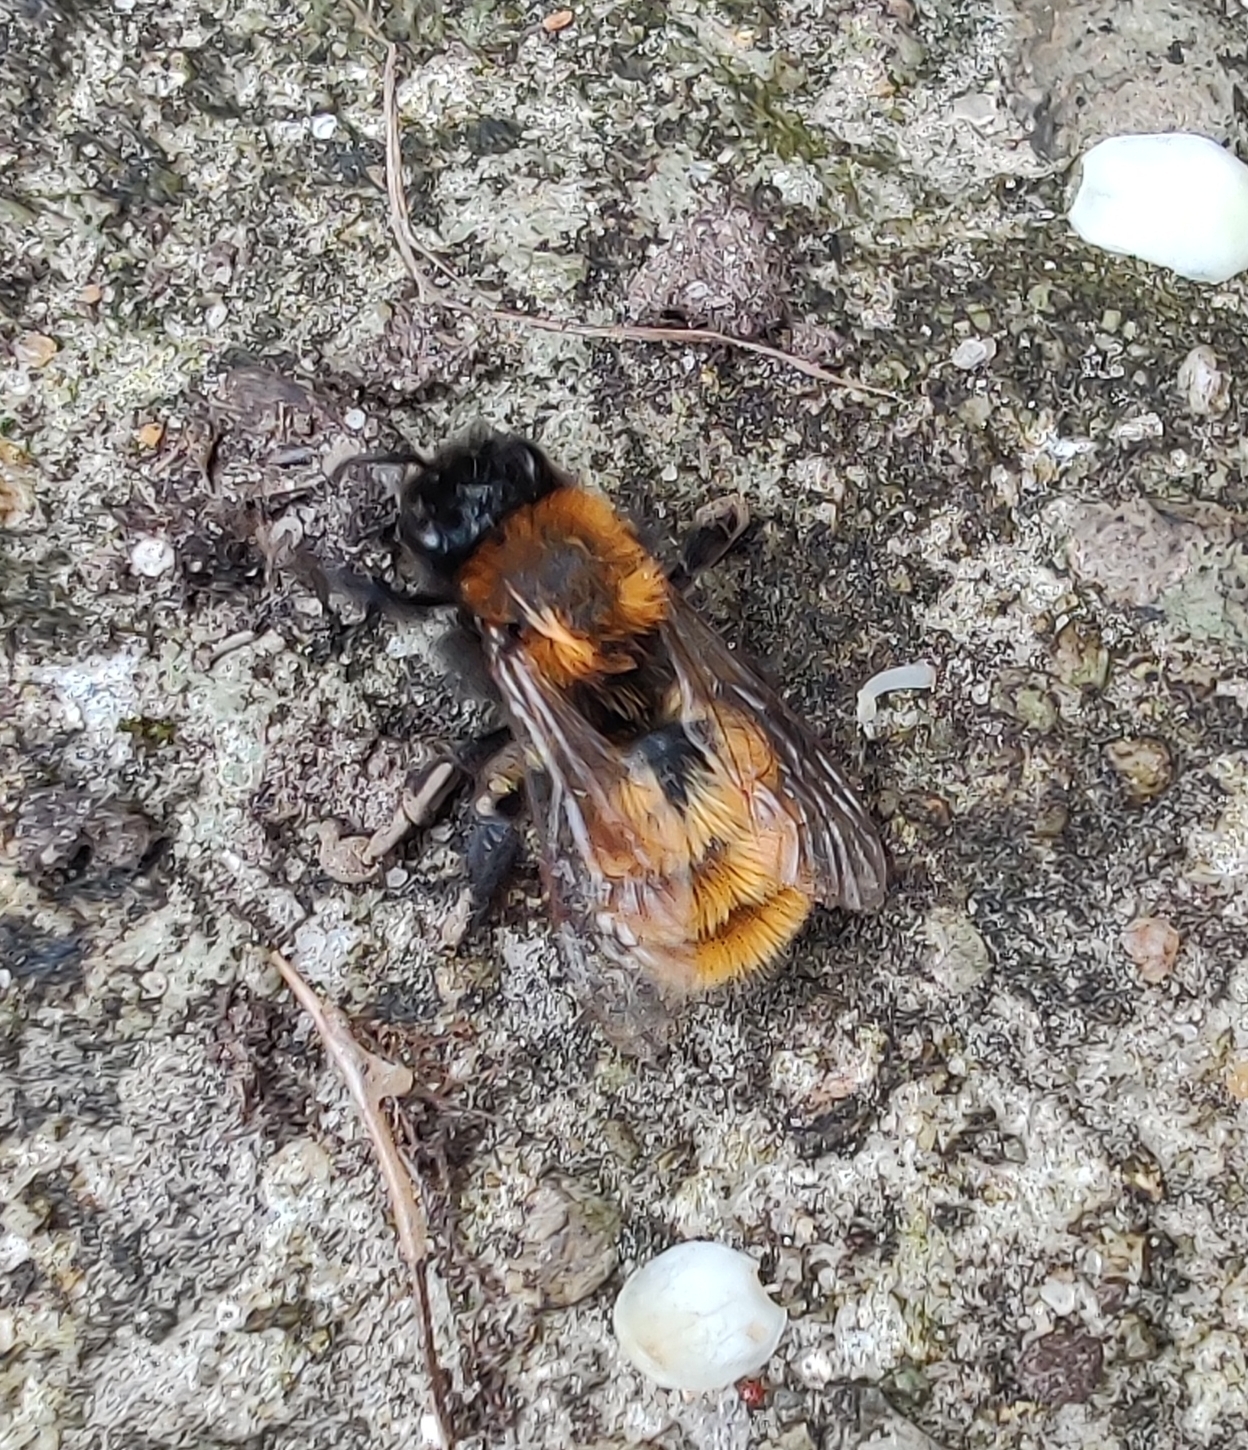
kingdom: Animalia
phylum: Arthropoda
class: Insecta
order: Hymenoptera
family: Andrenidae
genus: Andrena
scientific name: Andrena fulva
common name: Tawny mining bee
